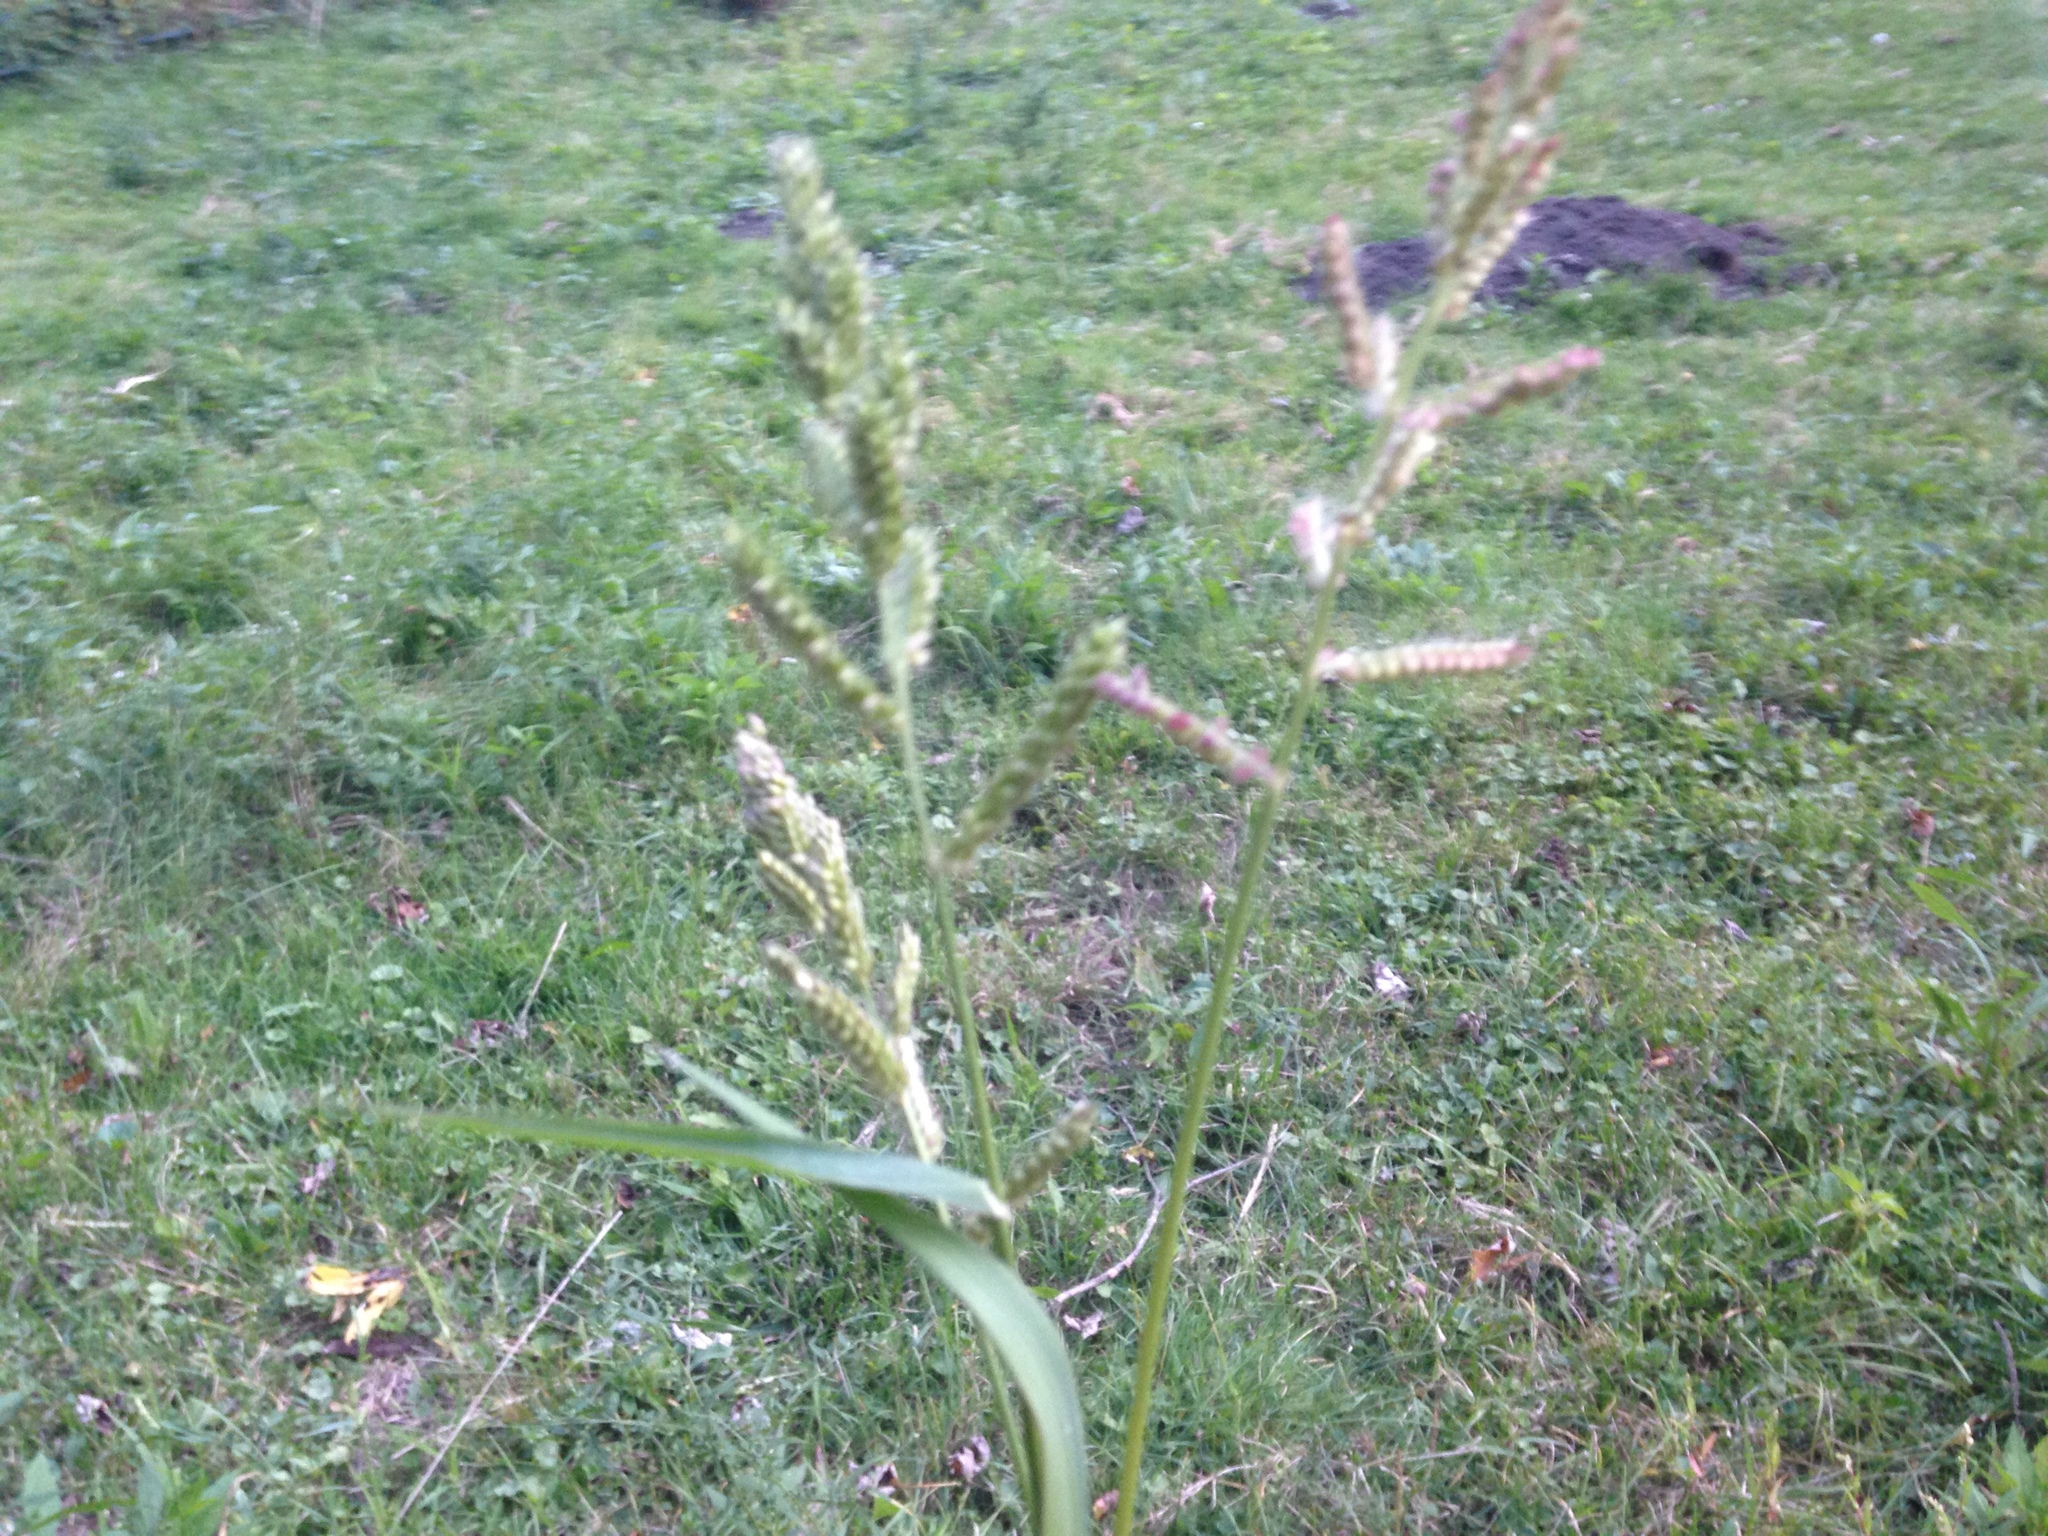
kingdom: Plantae
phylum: Tracheophyta
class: Liliopsida
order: Poales
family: Poaceae
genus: Echinochloa
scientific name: Echinochloa crus-galli
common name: Cockspur
